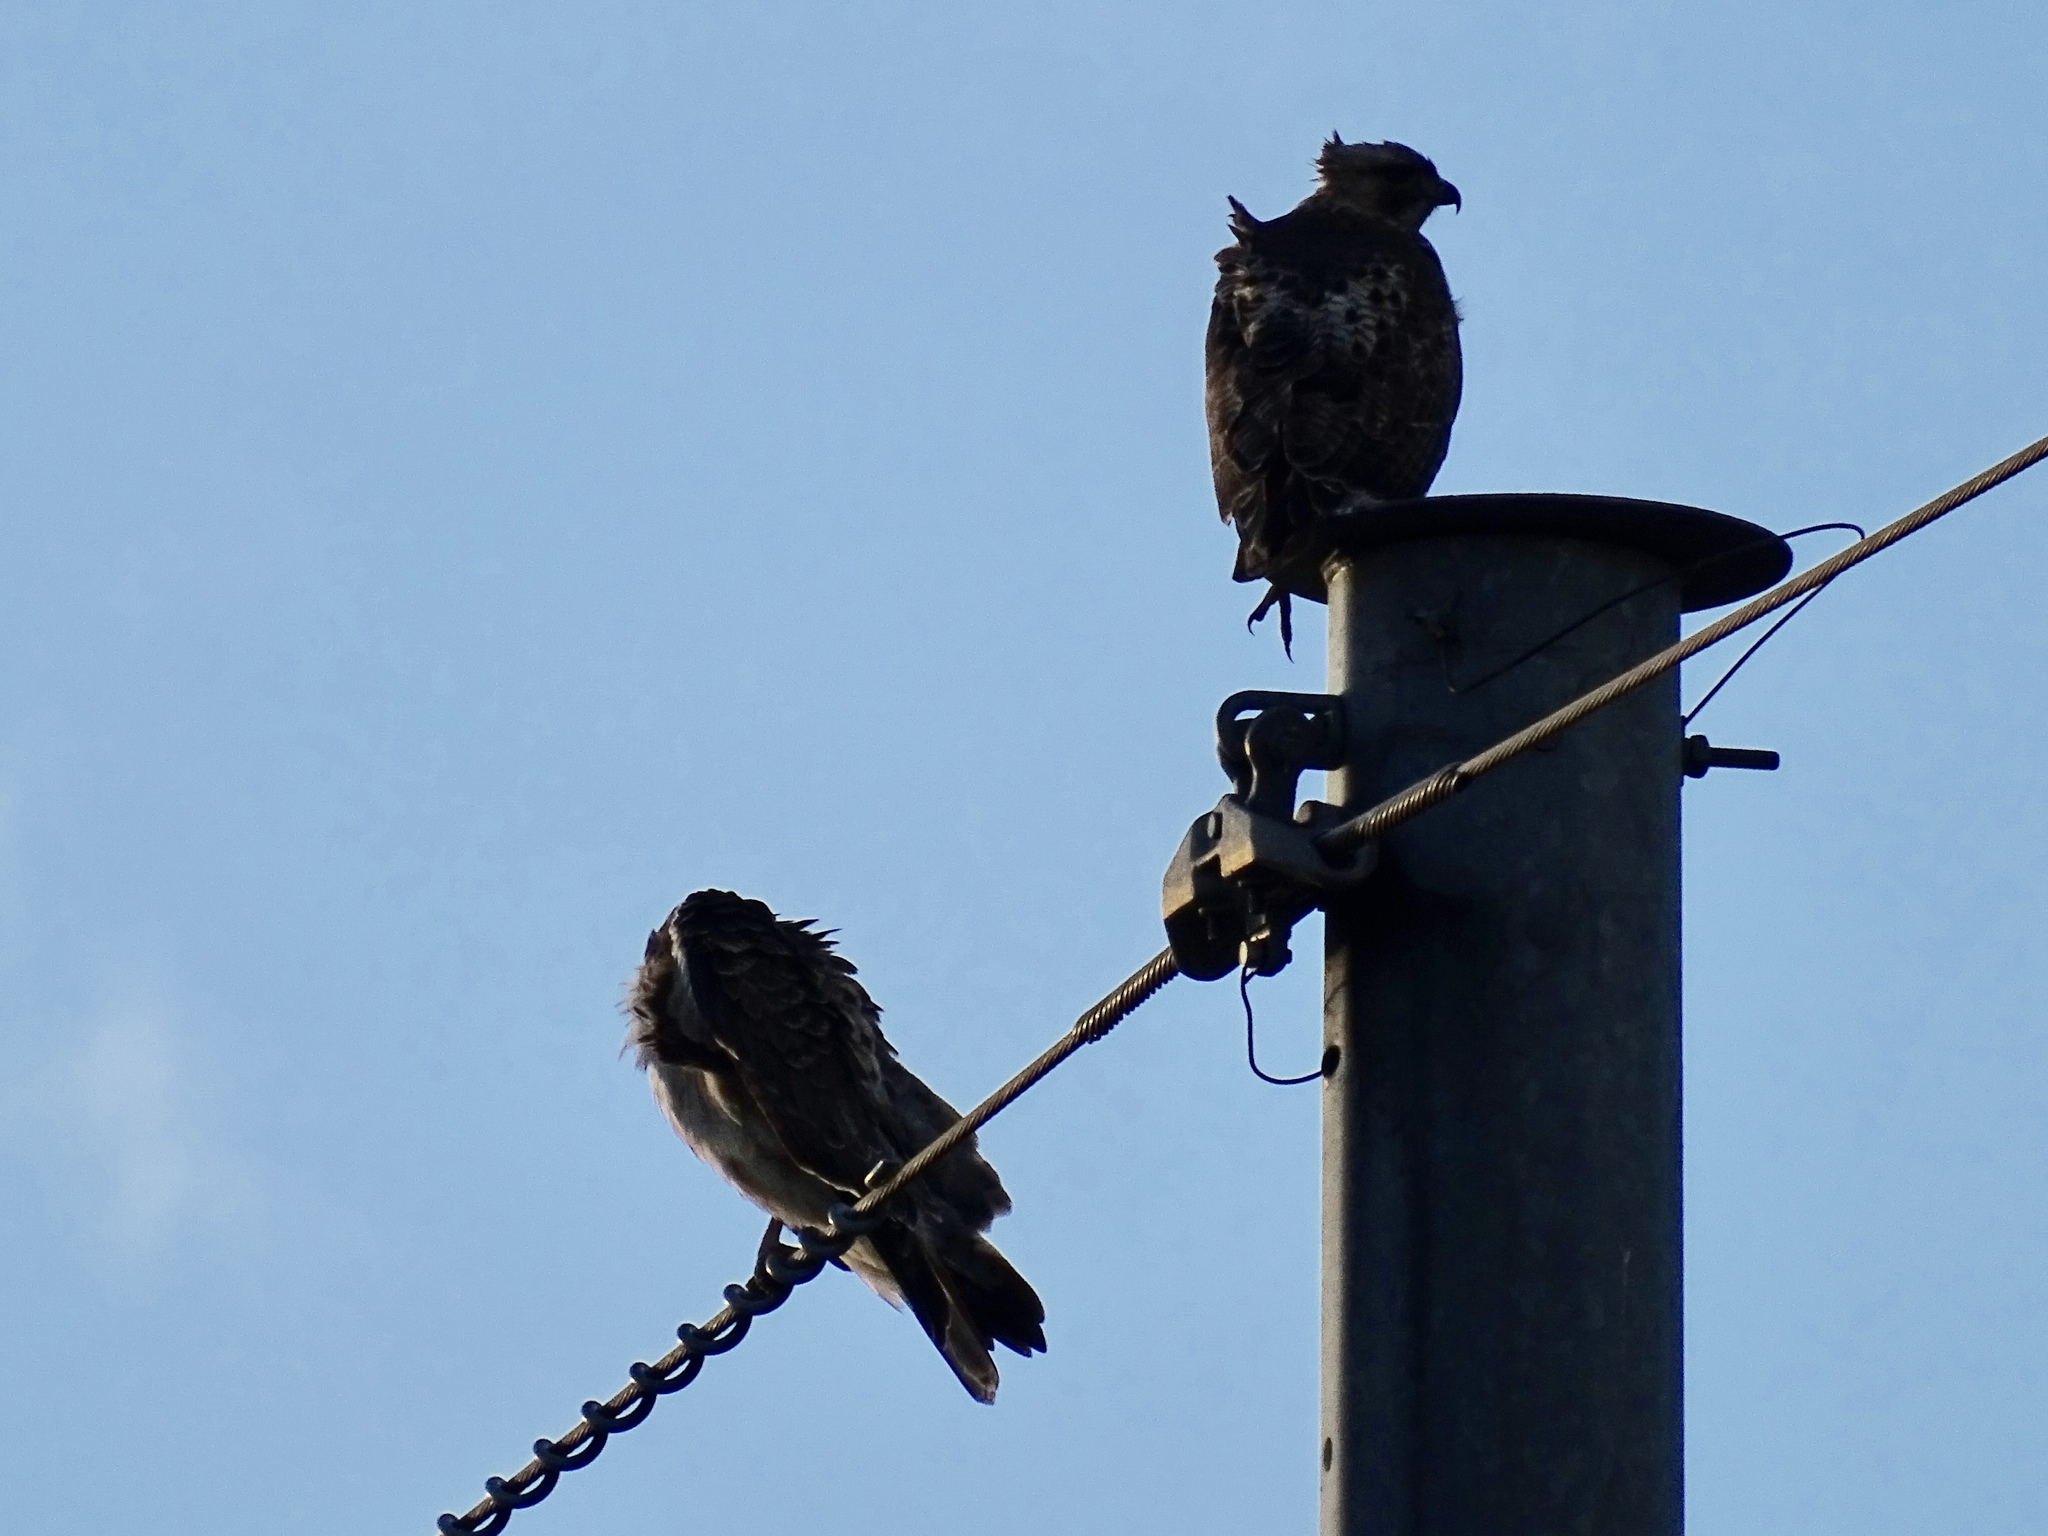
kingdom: Animalia
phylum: Chordata
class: Aves
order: Accipitriformes
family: Accipitridae
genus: Buteo
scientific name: Buteo jamaicensis
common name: Red-tailed hawk
